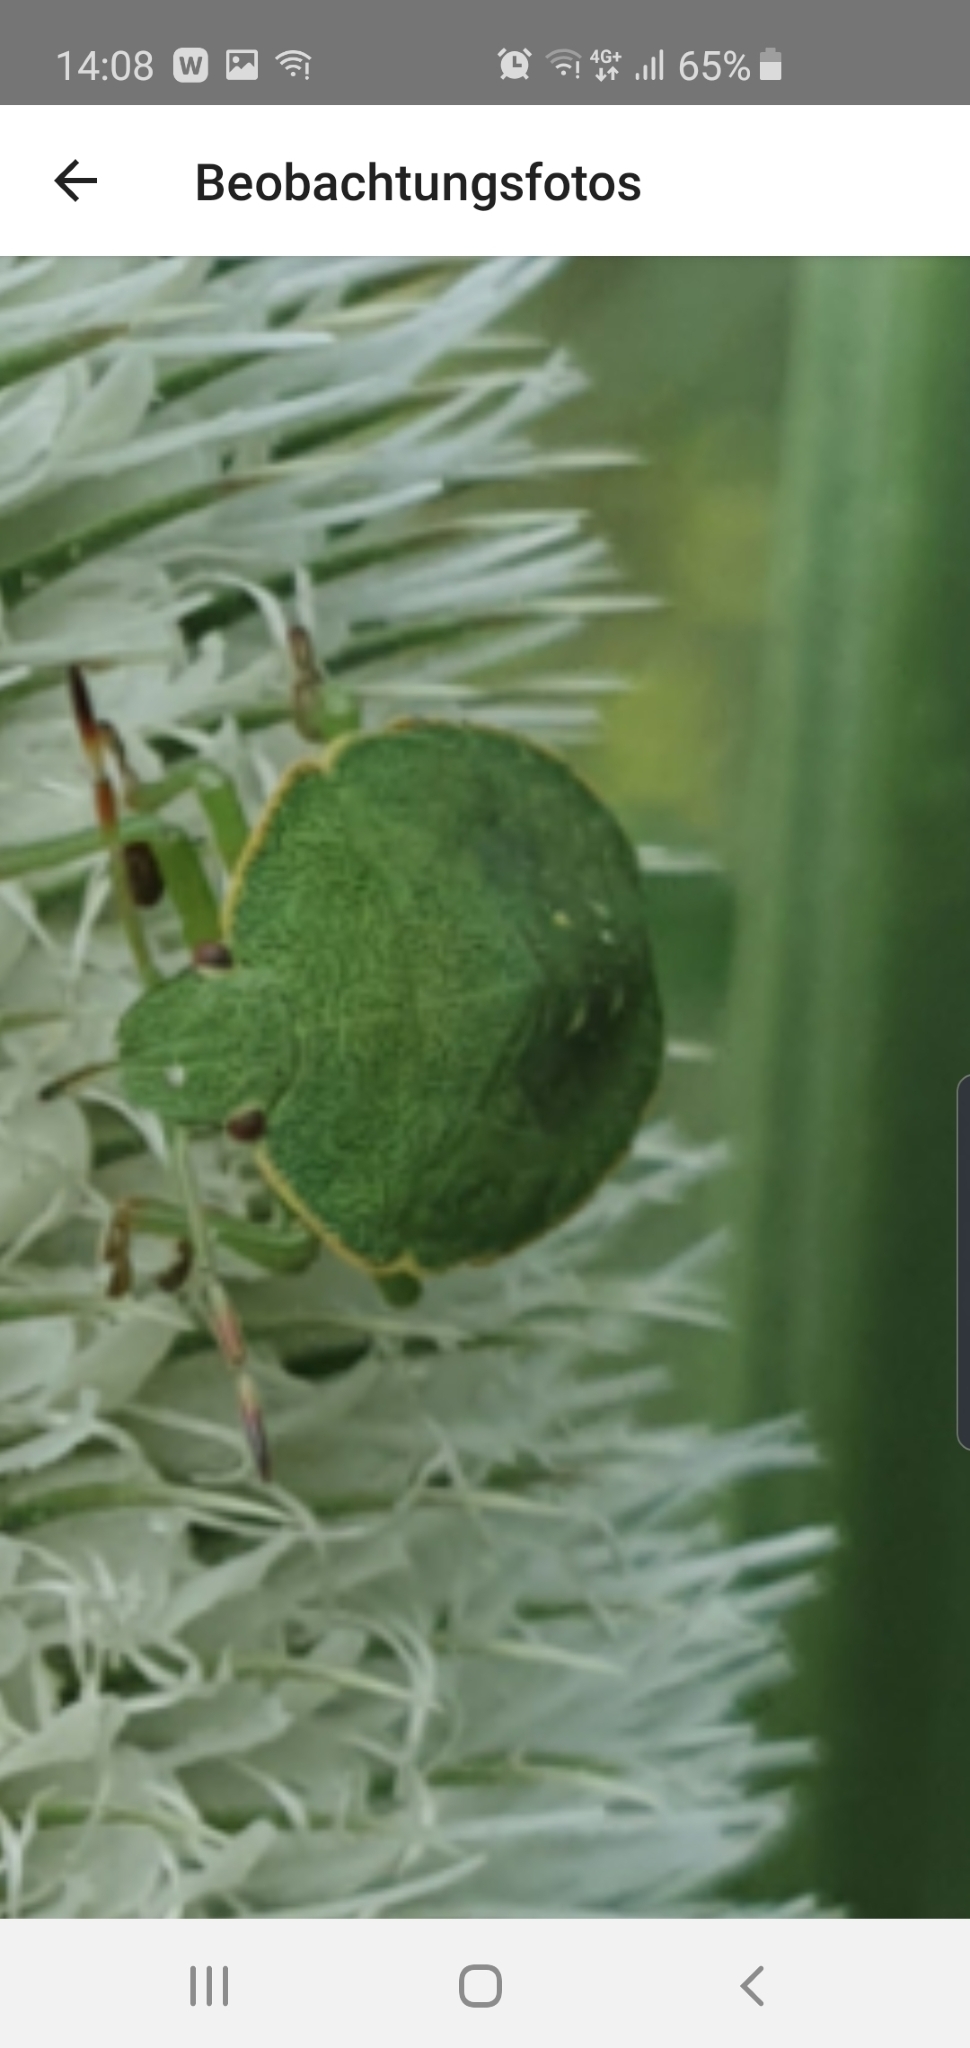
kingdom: Animalia
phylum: Arthropoda
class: Insecta
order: Hemiptera
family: Pentatomidae
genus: Palomena
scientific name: Palomena prasina
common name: Green shieldbug
